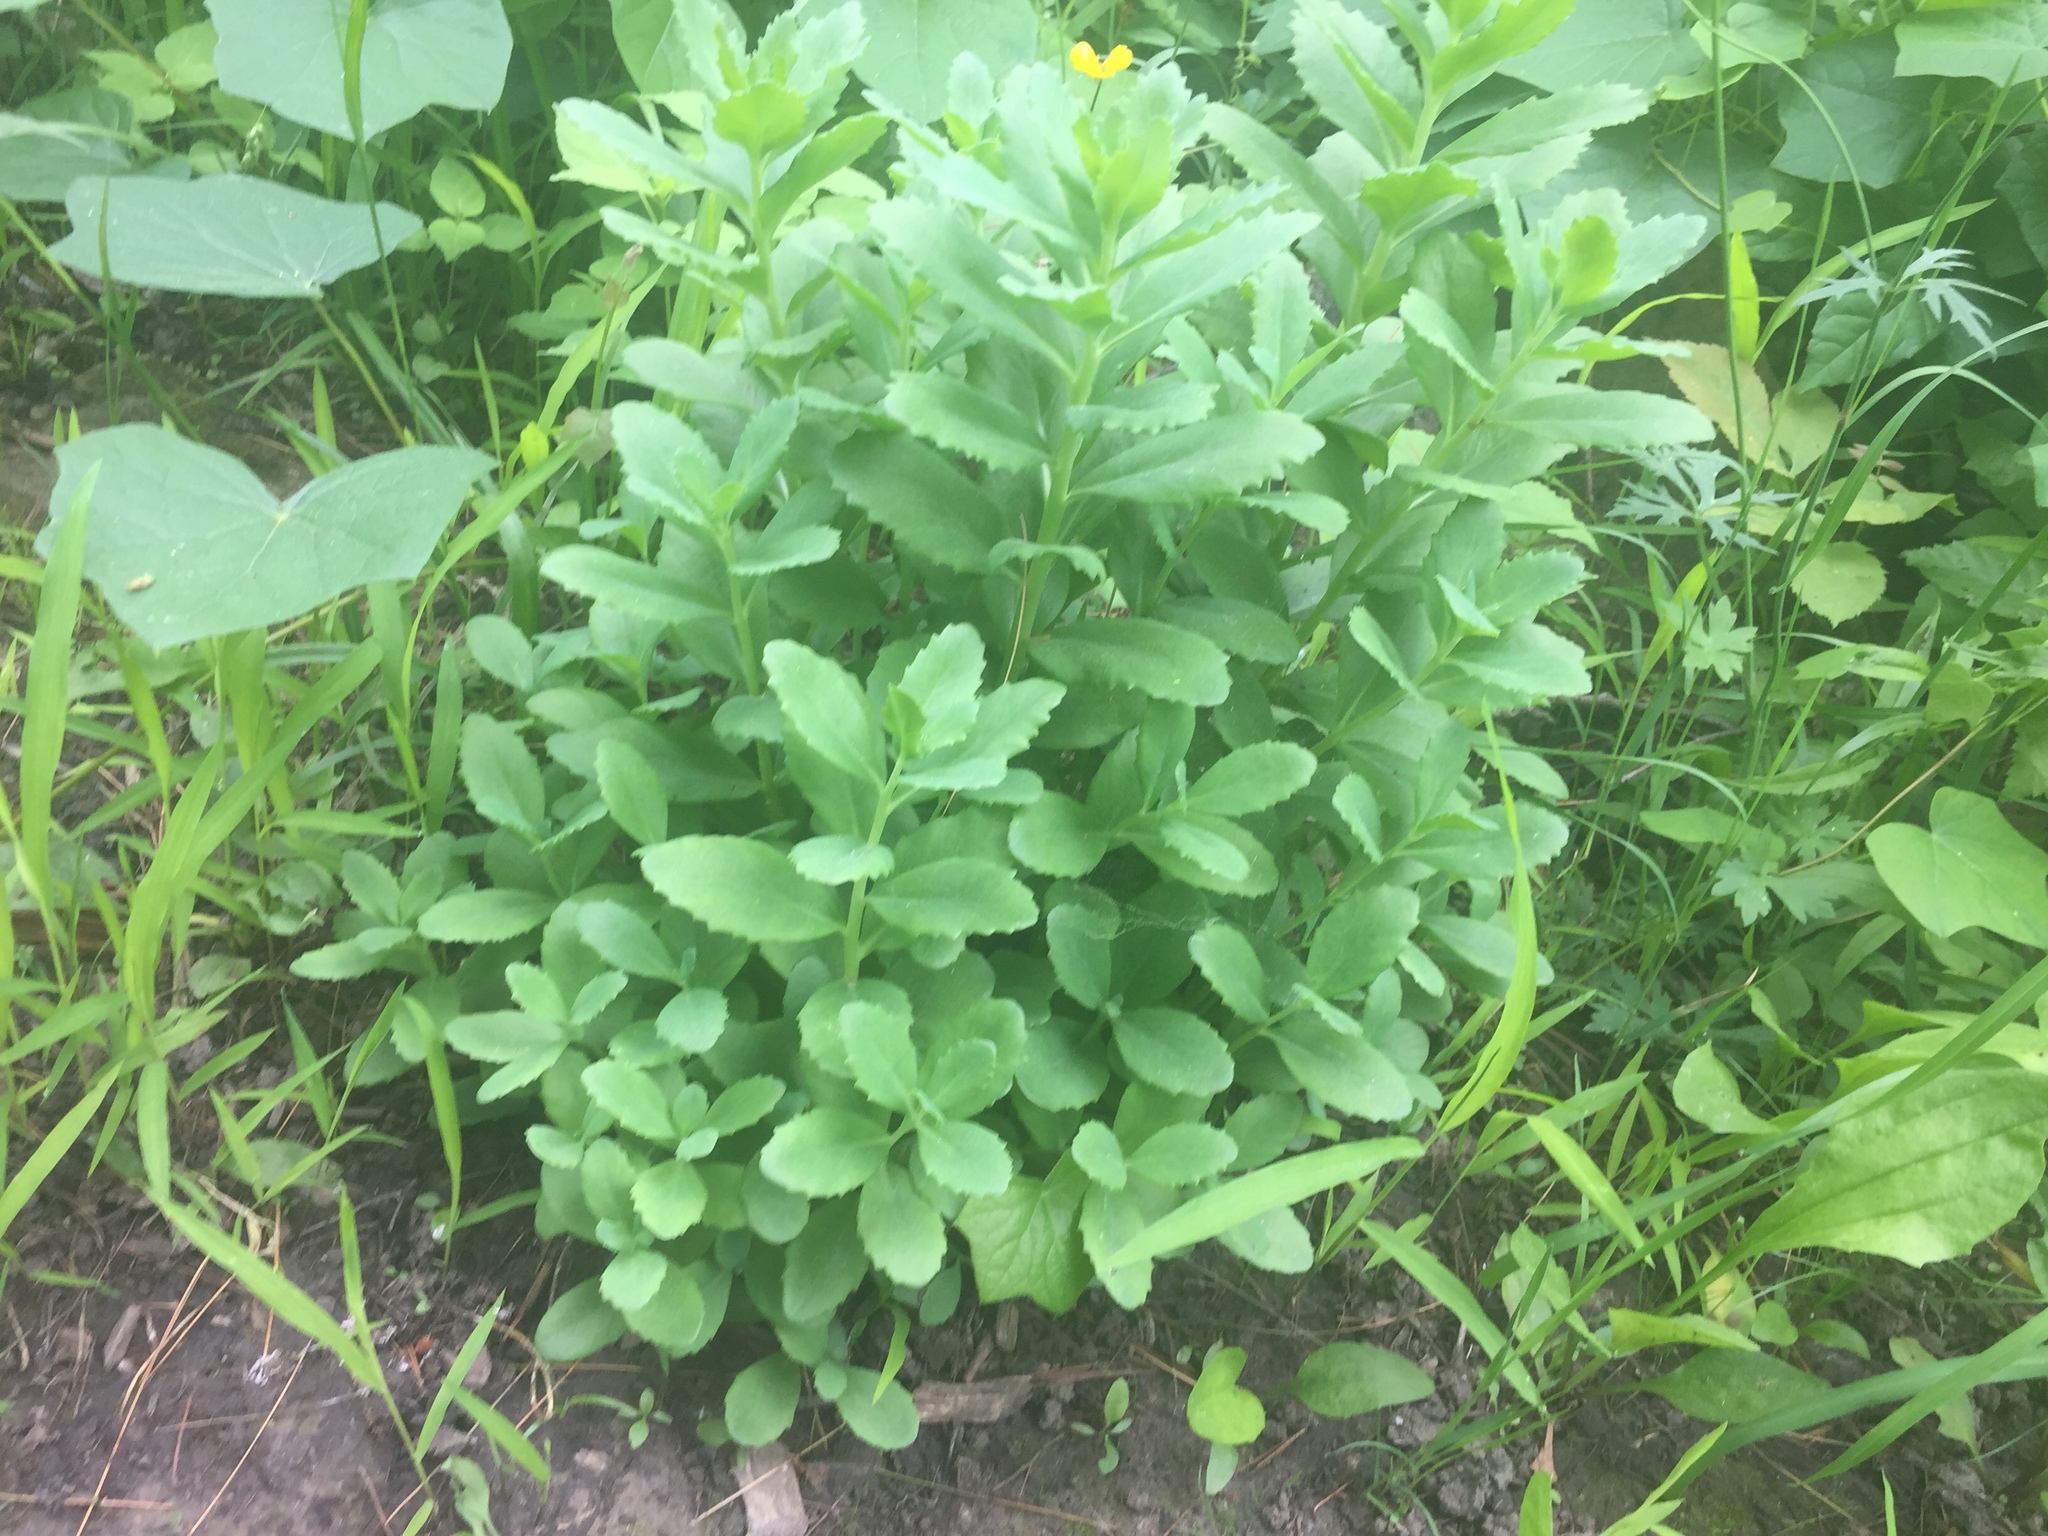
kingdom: Plantae
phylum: Tracheophyta
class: Magnoliopsida
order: Saxifragales
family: Crassulaceae
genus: Hylotelephium
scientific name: Hylotelephium telephium
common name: Live-forever
